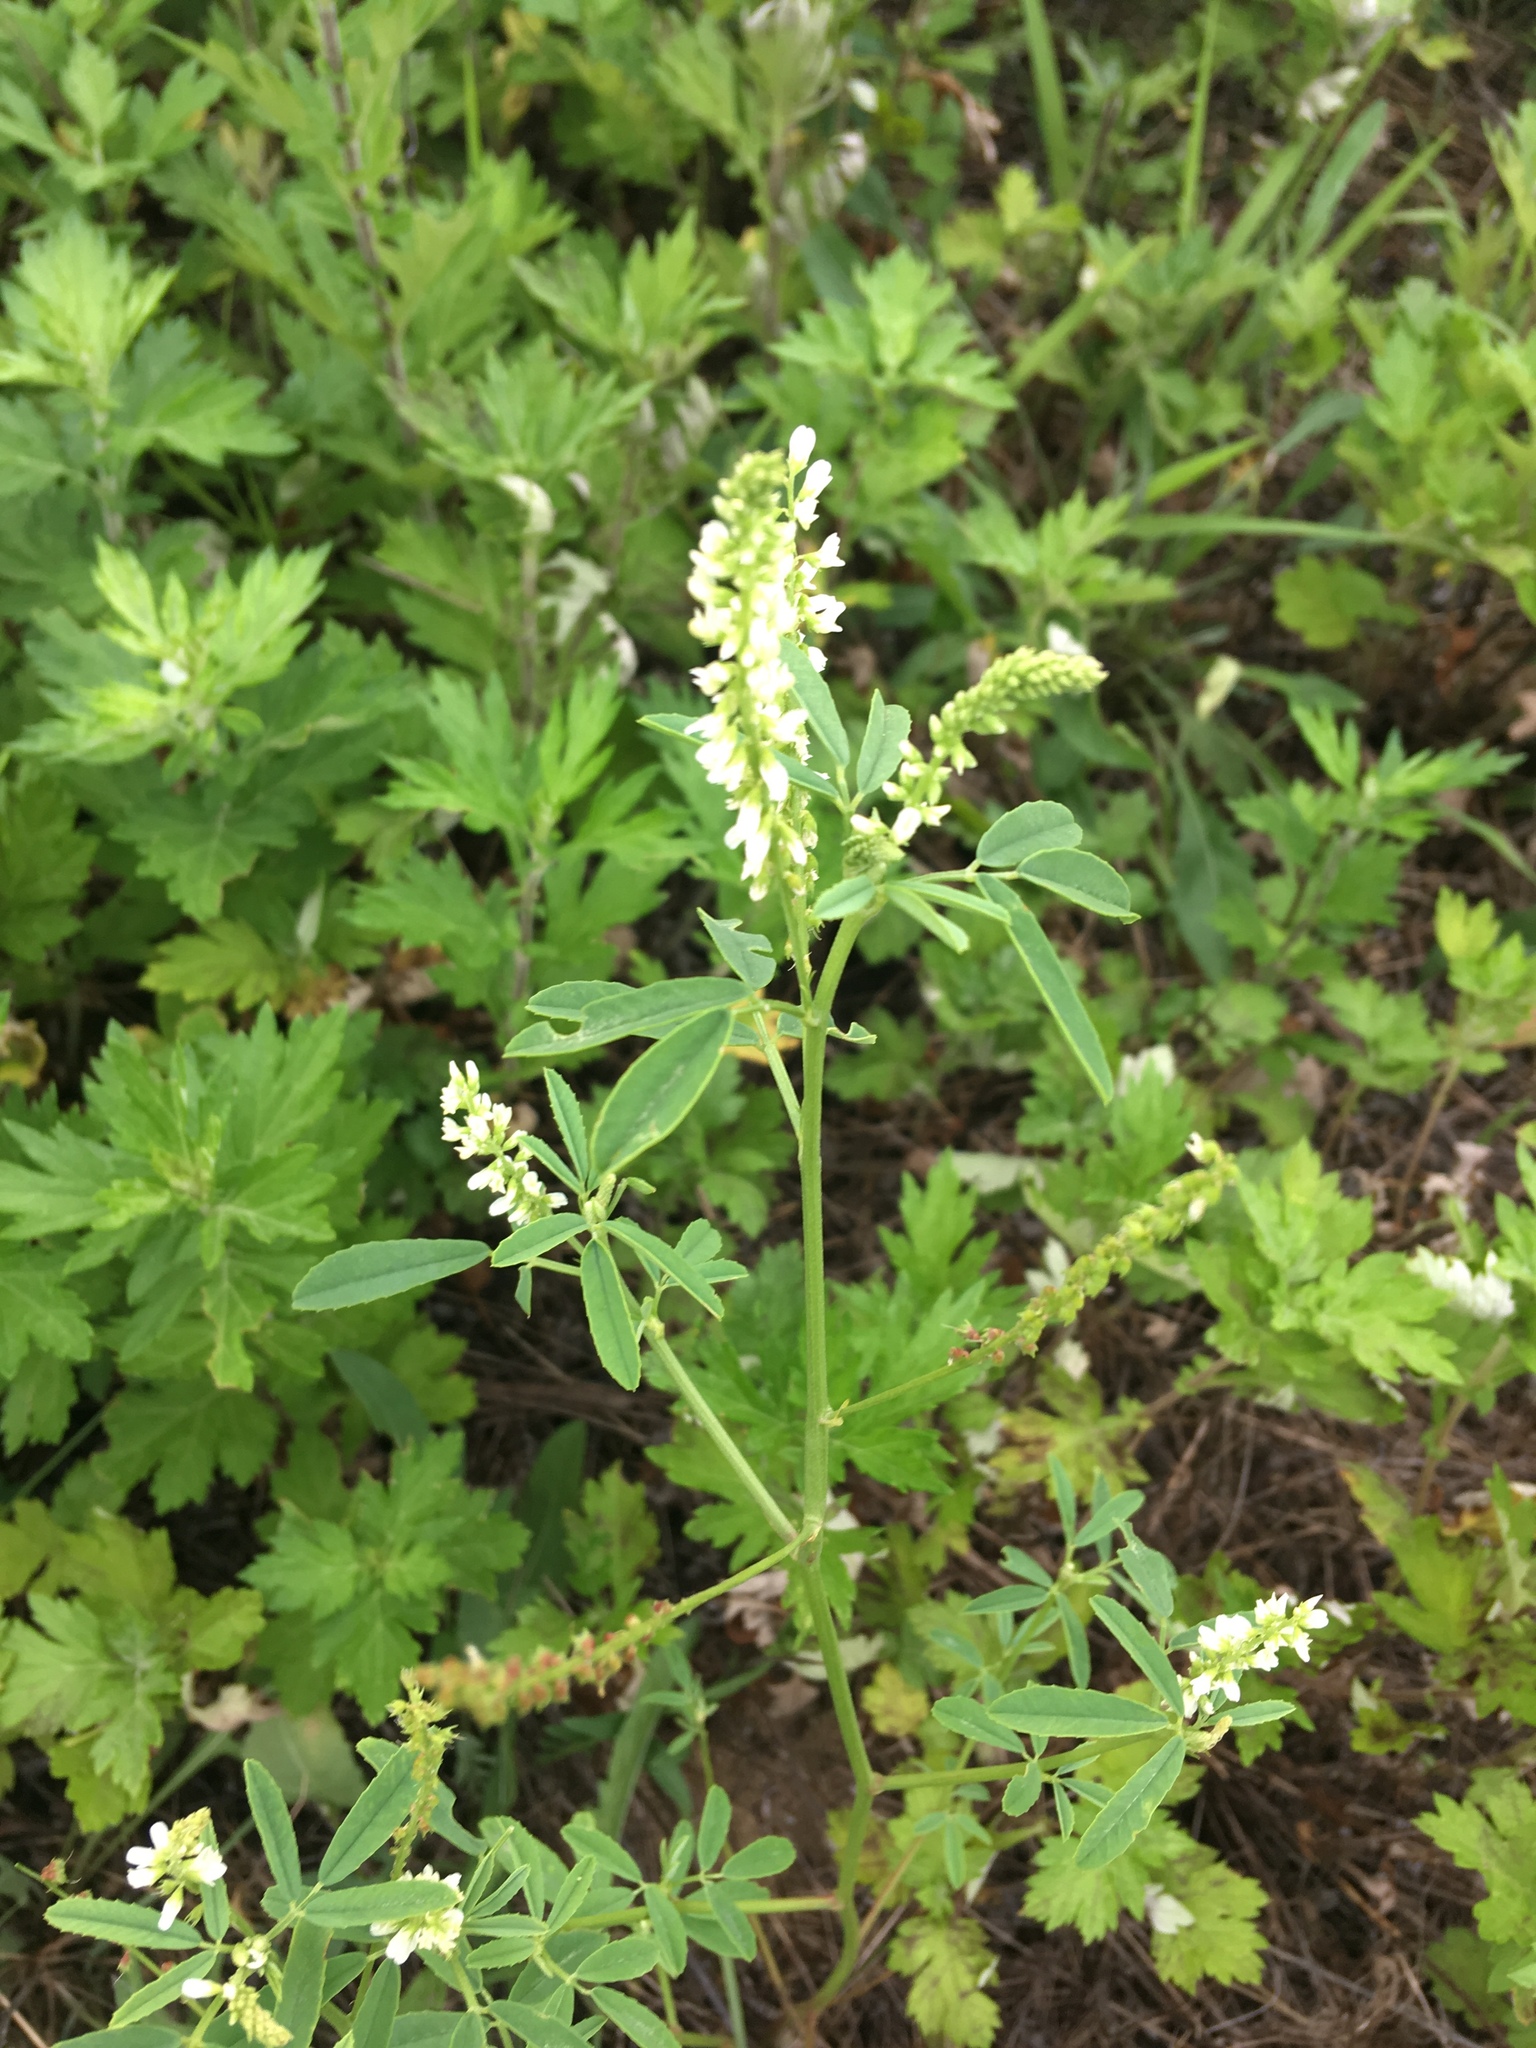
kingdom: Plantae
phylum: Tracheophyta
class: Magnoliopsida
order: Fabales
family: Fabaceae
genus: Melilotus
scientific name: Melilotus albus
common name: White melilot
